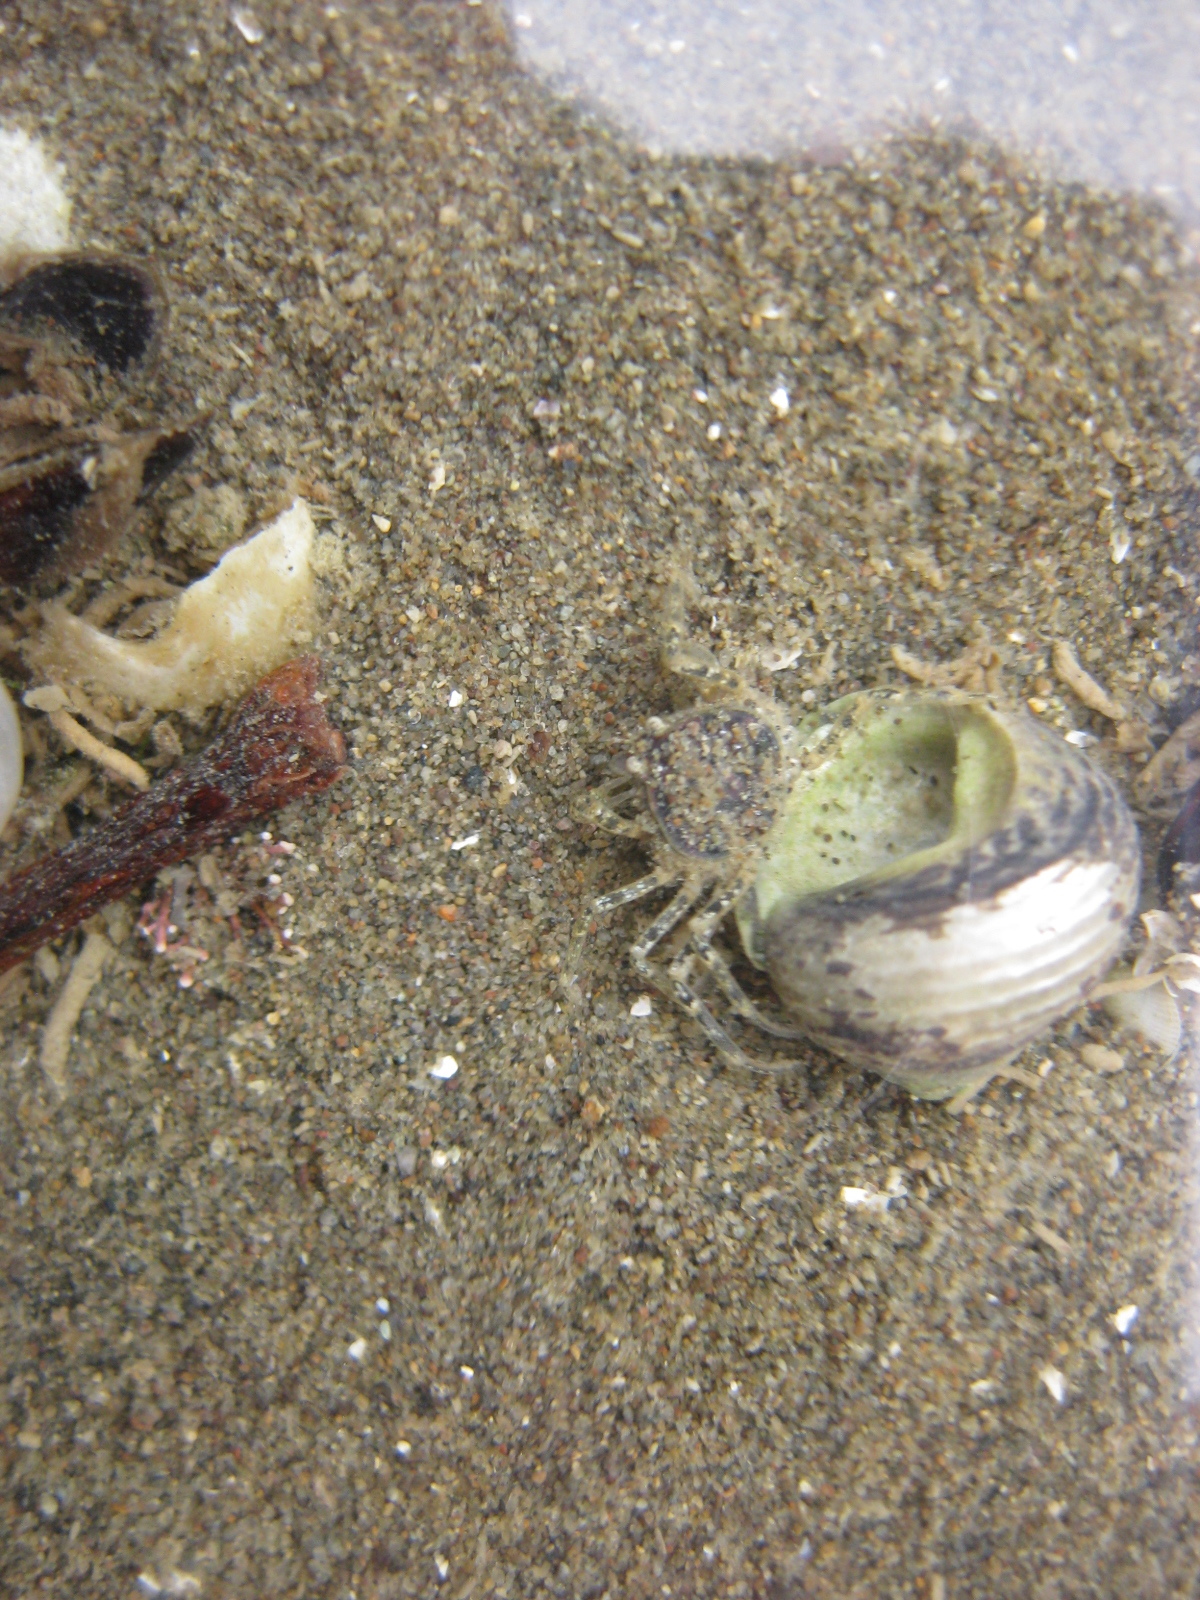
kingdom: Animalia
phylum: Arthropoda
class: Malacostraca
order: Decapoda
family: Hymenosomatidae
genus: Halicarcinus
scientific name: Halicarcinus whitei
